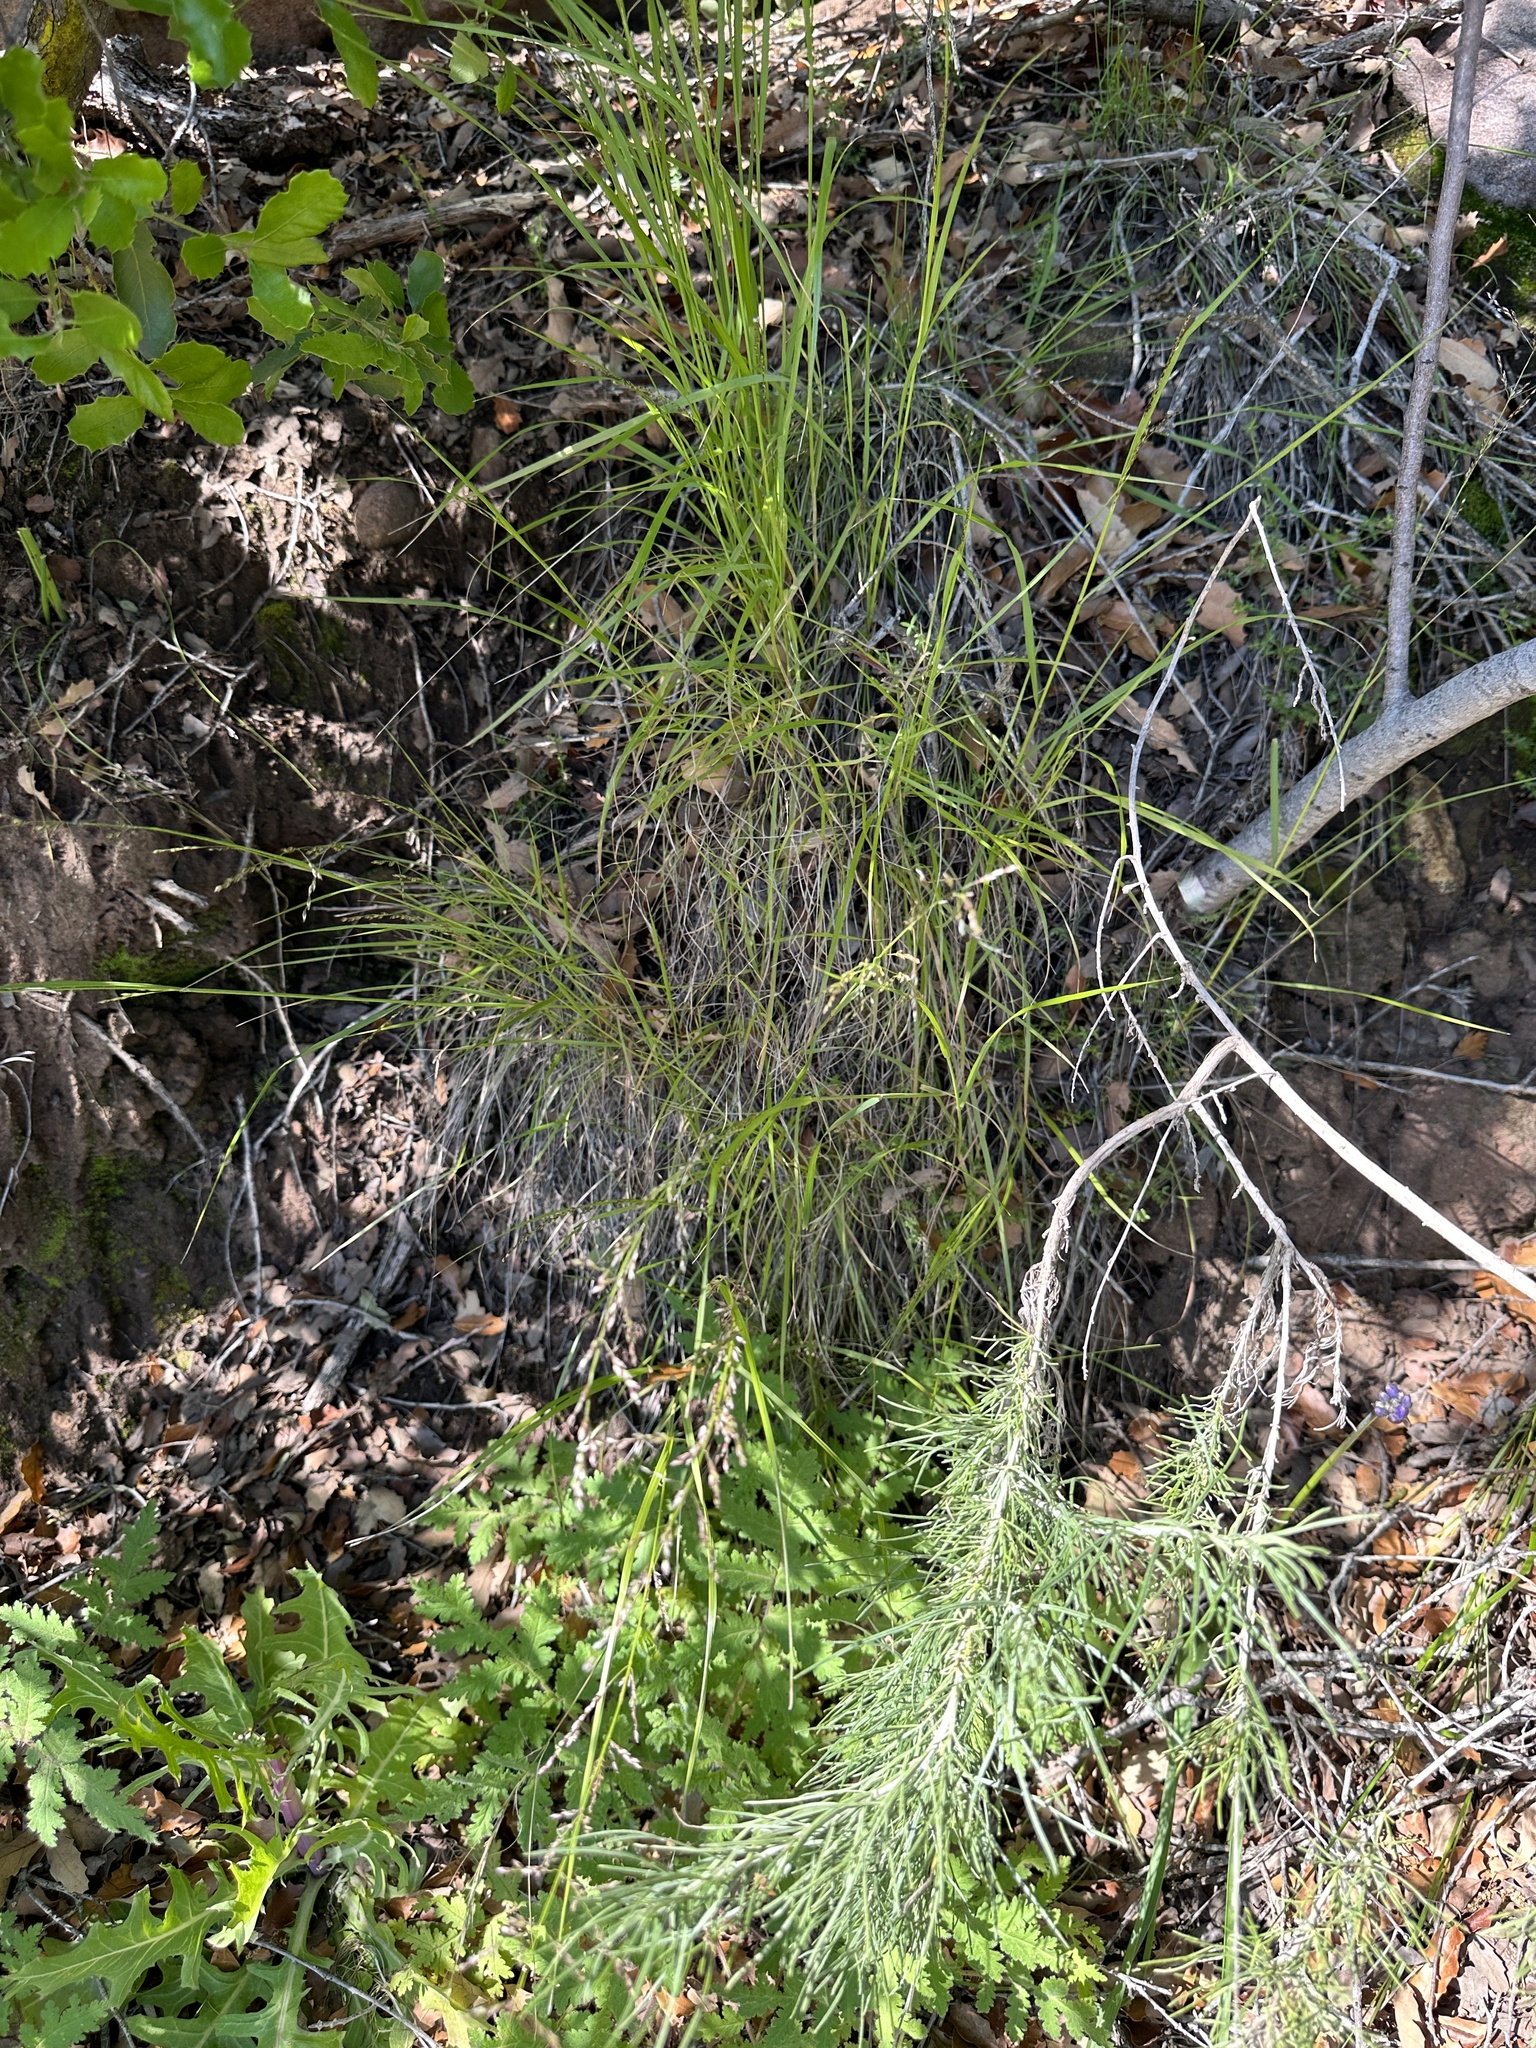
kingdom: Plantae
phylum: Tracheophyta
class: Liliopsida
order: Poales
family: Poaceae
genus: Melica
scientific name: Melica imperfecta
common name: California melic
